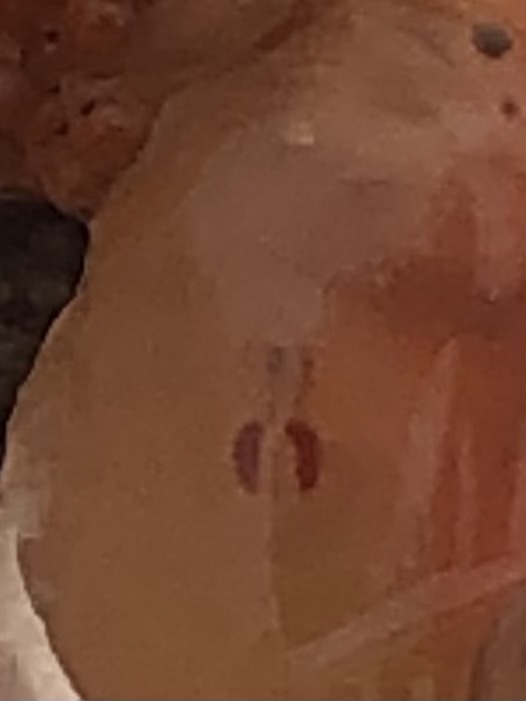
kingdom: Animalia
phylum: Arthropoda
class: Copepoda
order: Cyclopoida
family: Clausidiidae
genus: Clausidium
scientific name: Clausidium vancouverense
